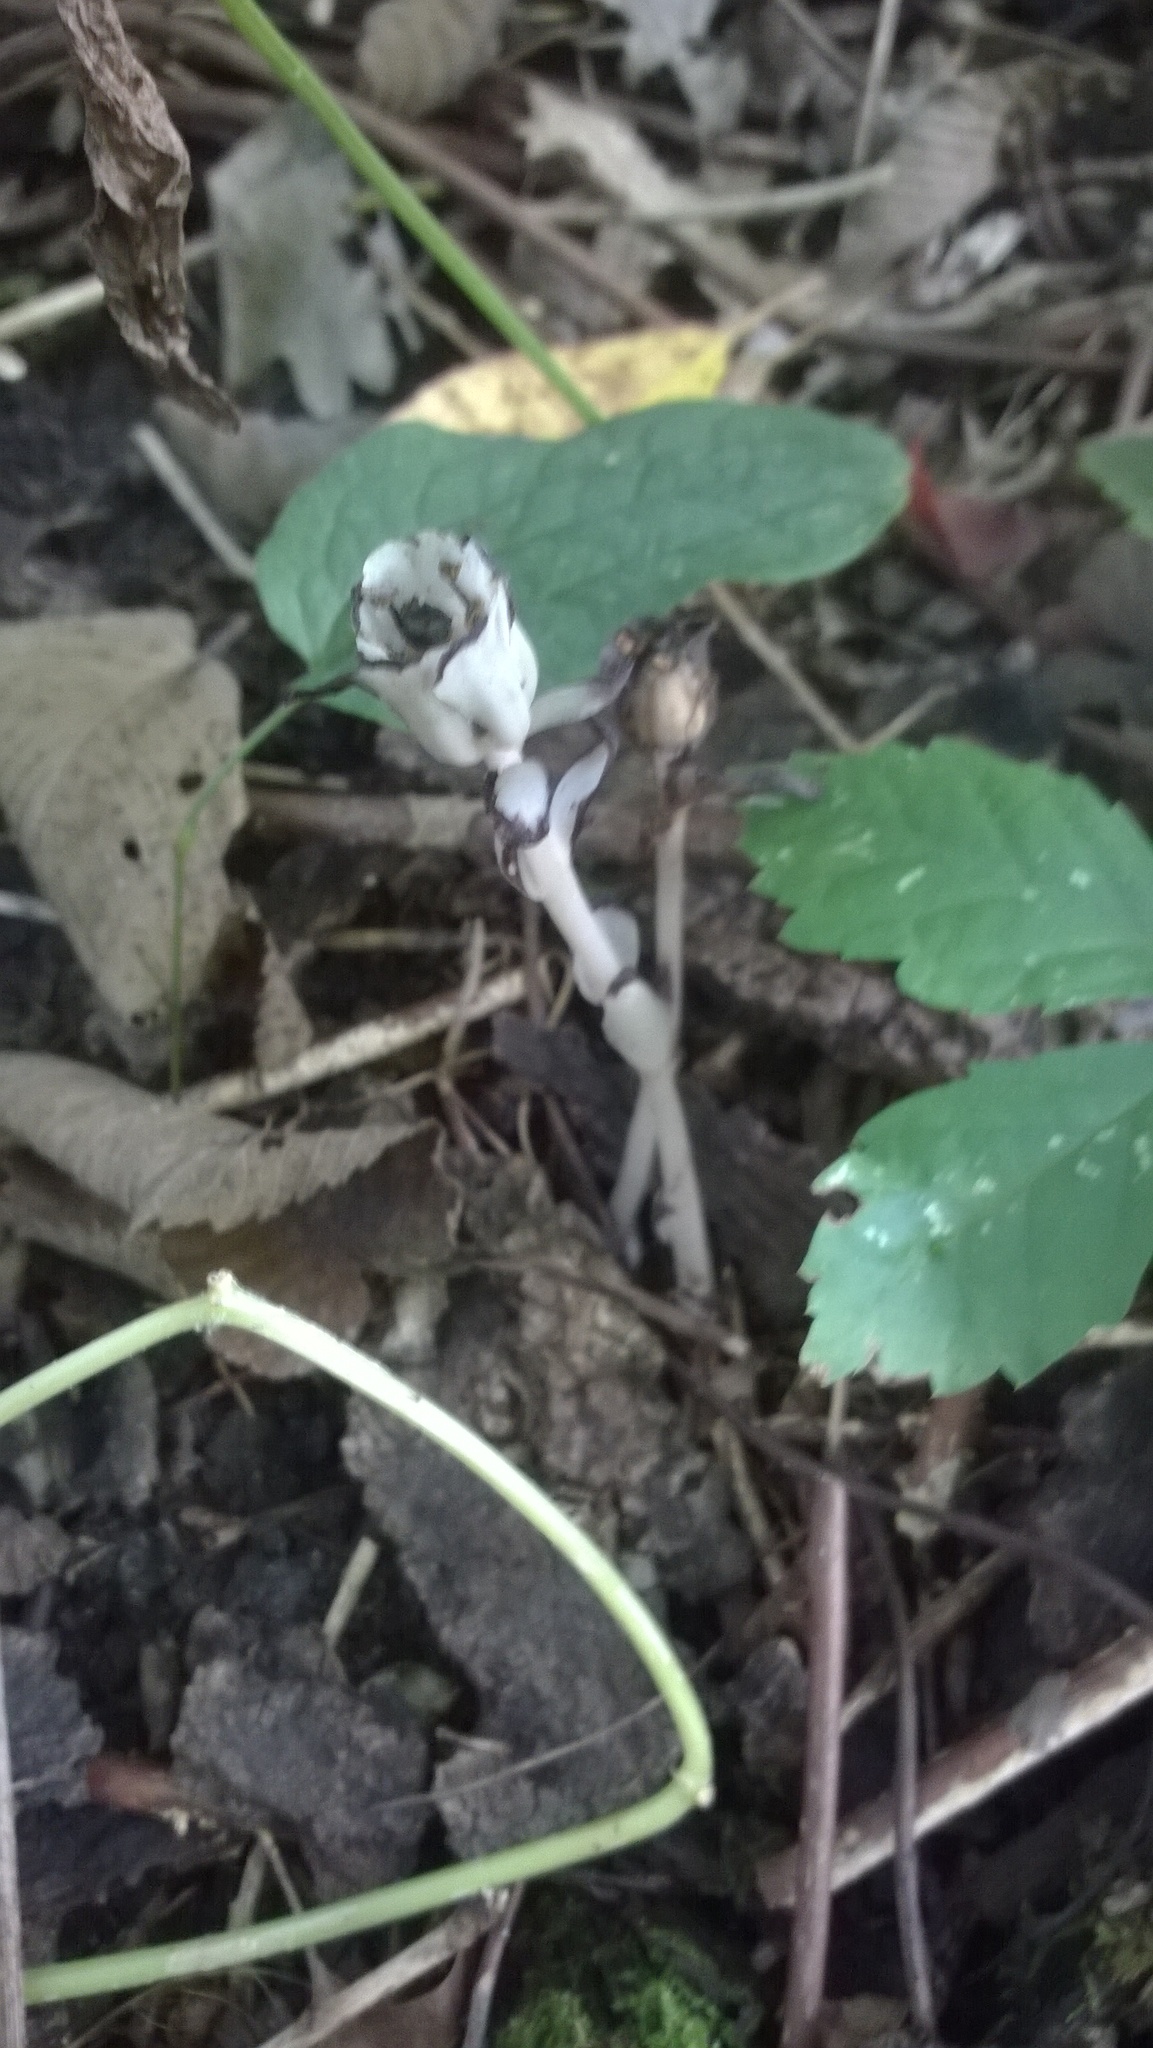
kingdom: Plantae
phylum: Tracheophyta
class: Magnoliopsida
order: Ericales
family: Ericaceae
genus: Monotropa
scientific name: Monotropa uniflora
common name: Convulsion root
